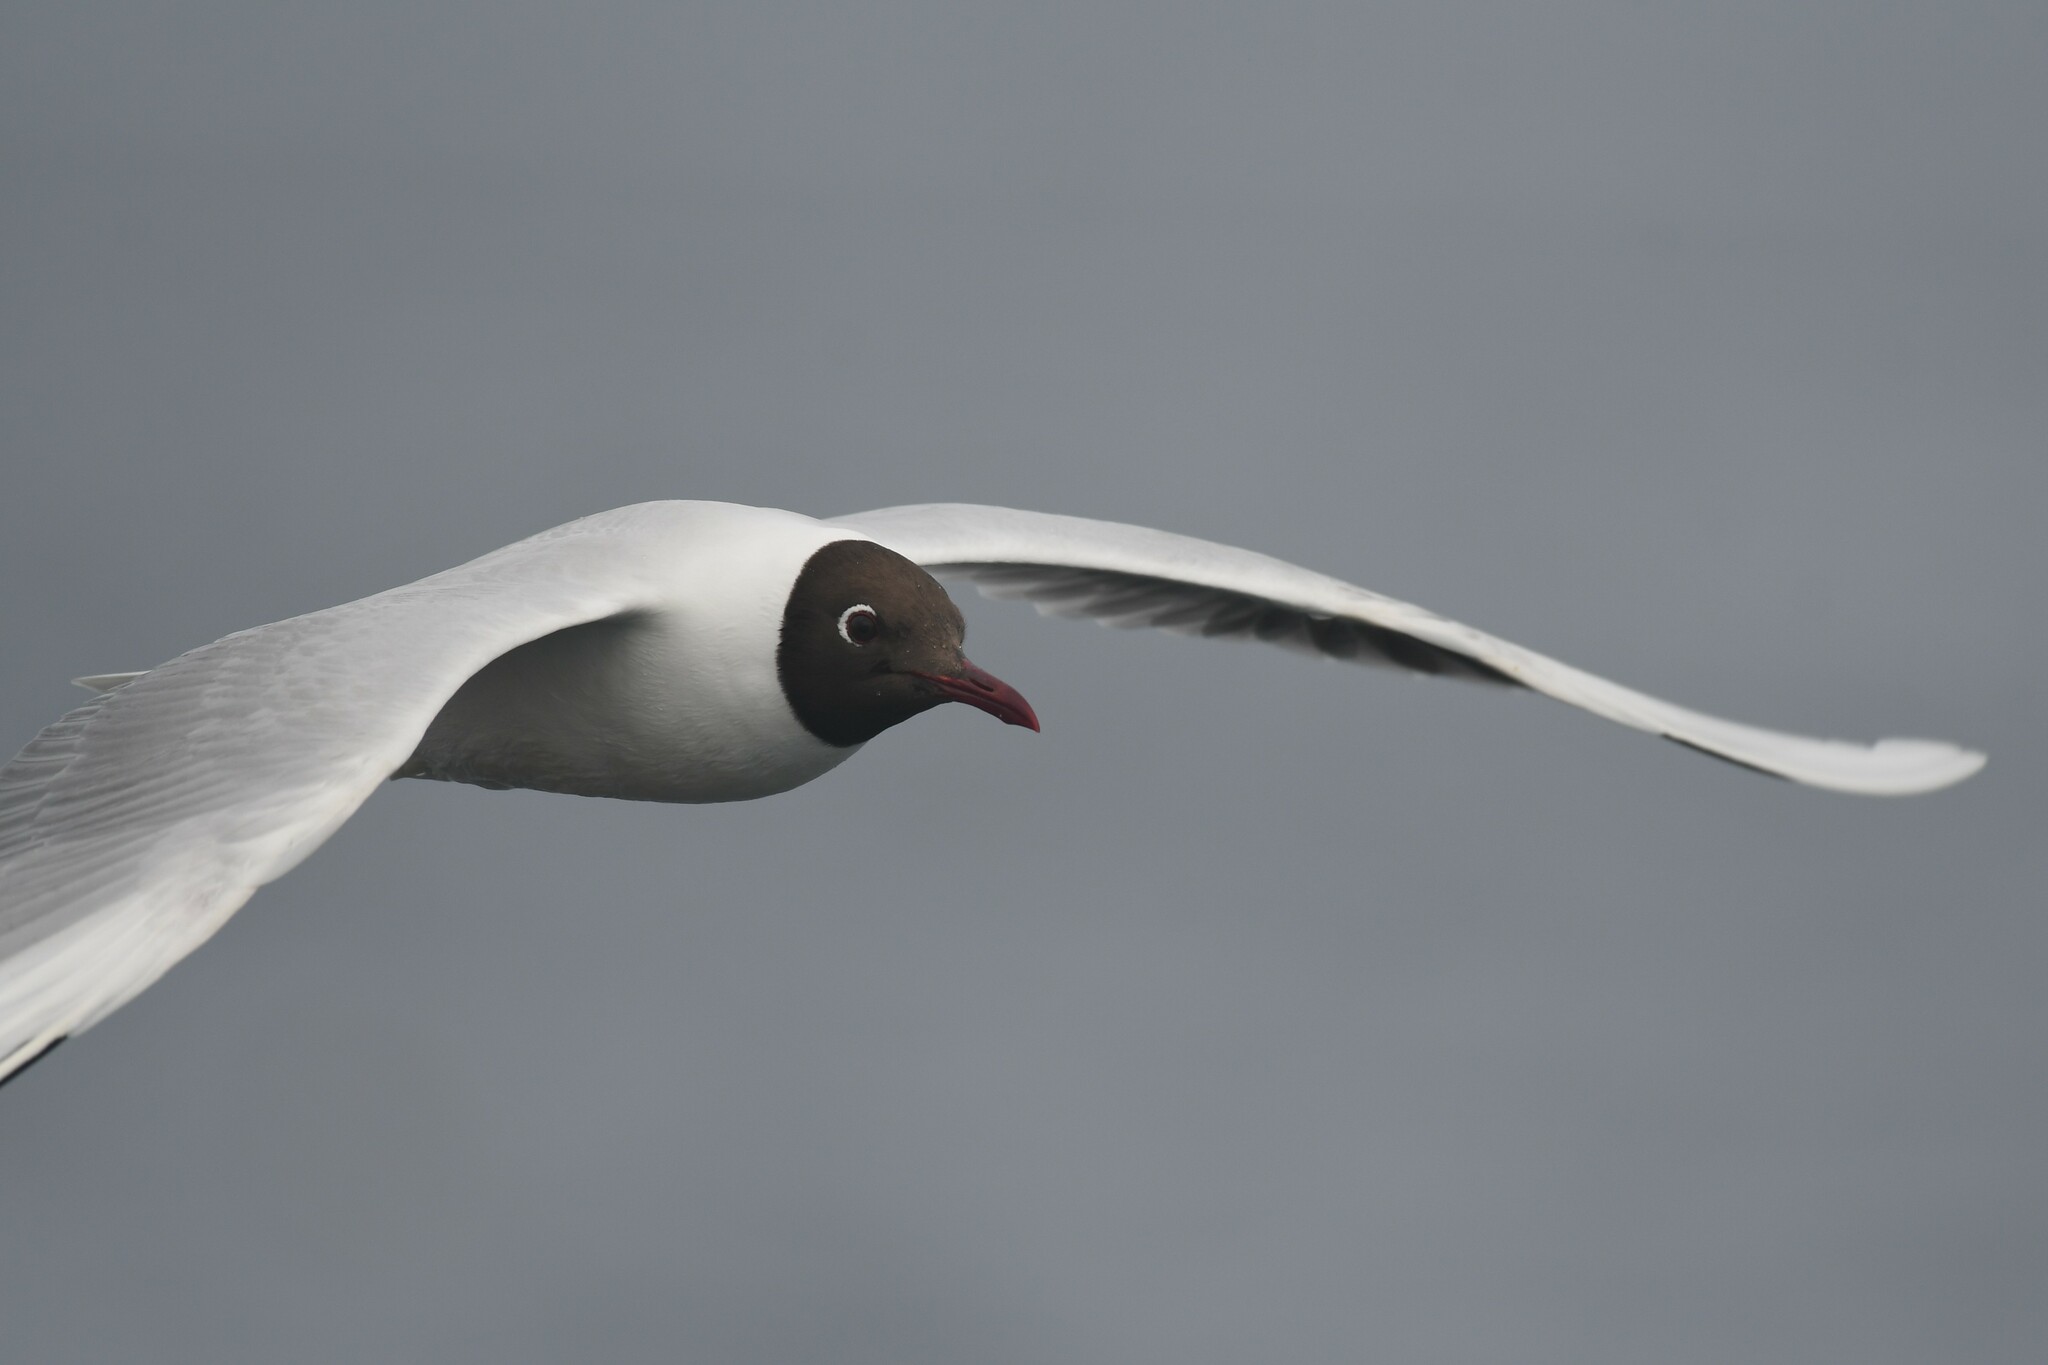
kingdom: Animalia
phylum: Chordata
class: Aves
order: Charadriiformes
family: Laridae
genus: Chroicocephalus
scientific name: Chroicocephalus maculipennis
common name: Brown-hooded gull
